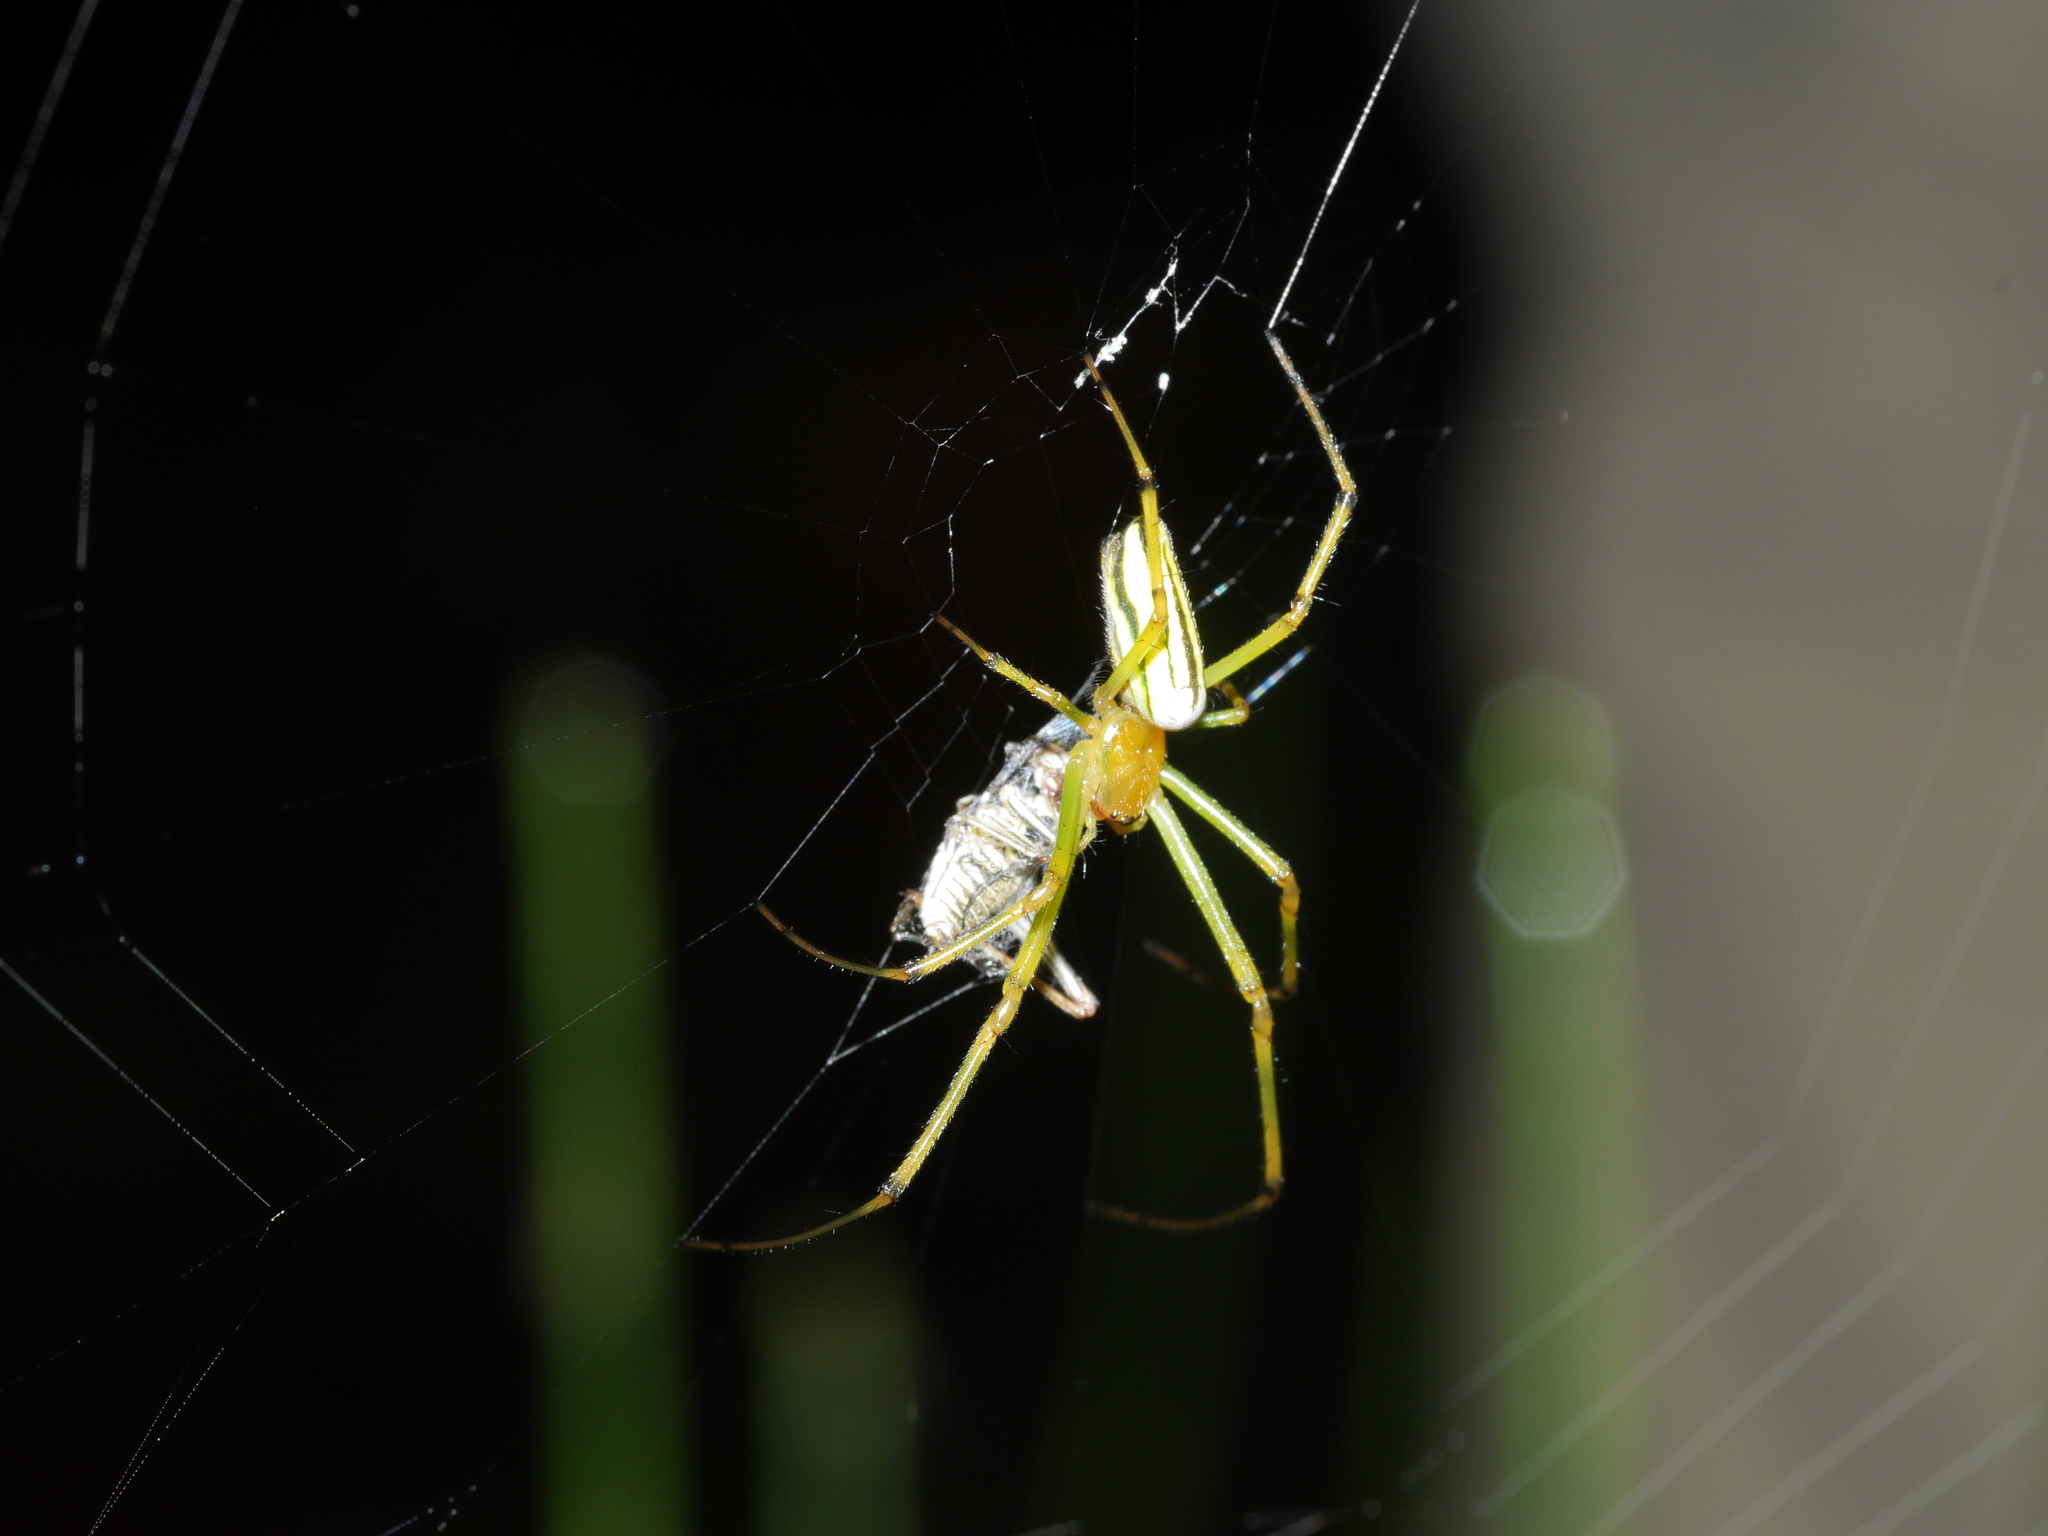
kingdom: Animalia
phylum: Arthropoda
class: Arachnida
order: Araneae
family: Tetragnathidae
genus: Leucauge
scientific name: Leucauge celebesiana
